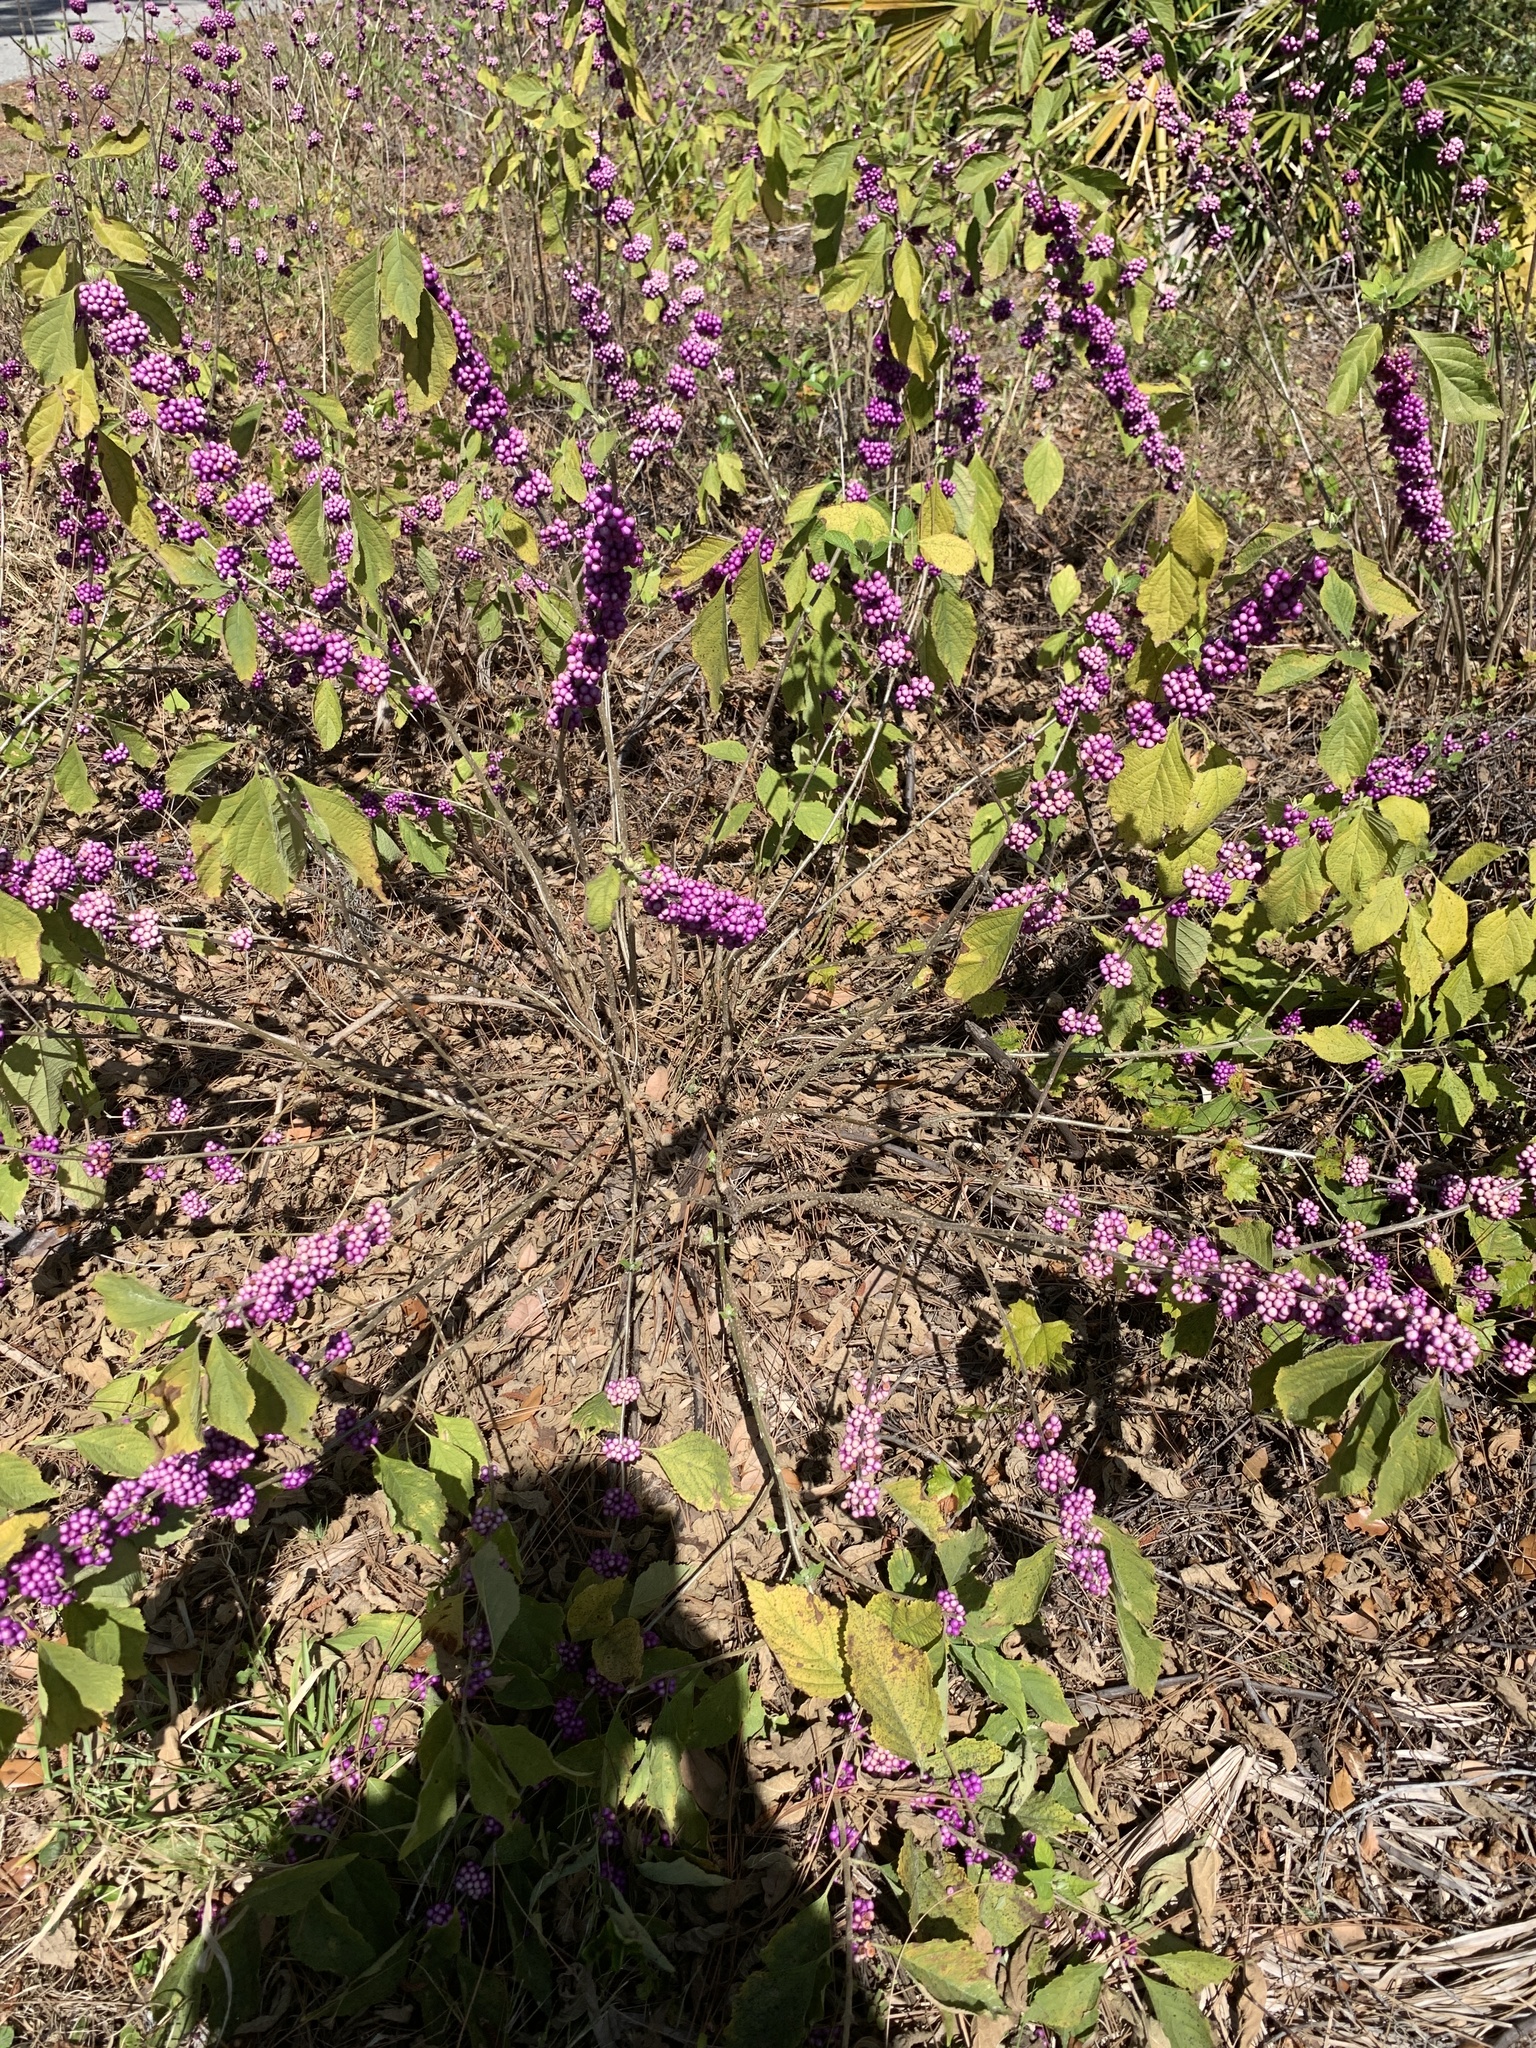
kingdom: Plantae
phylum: Tracheophyta
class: Magnoliopsida
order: Lamiales
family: Lamiaceae
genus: Callicarpa
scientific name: Callicarpa americana
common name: American beautyberry
